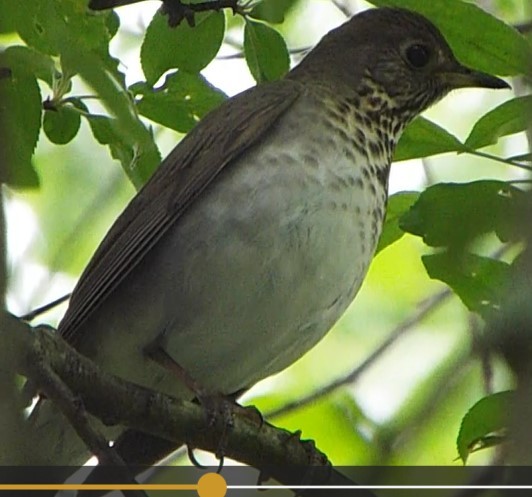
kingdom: Animalia
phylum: Chordata
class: Aves
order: Passeriformes
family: Turdidae
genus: Catharus
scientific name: Catharus minimus
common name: Grey-cheeked thrush
